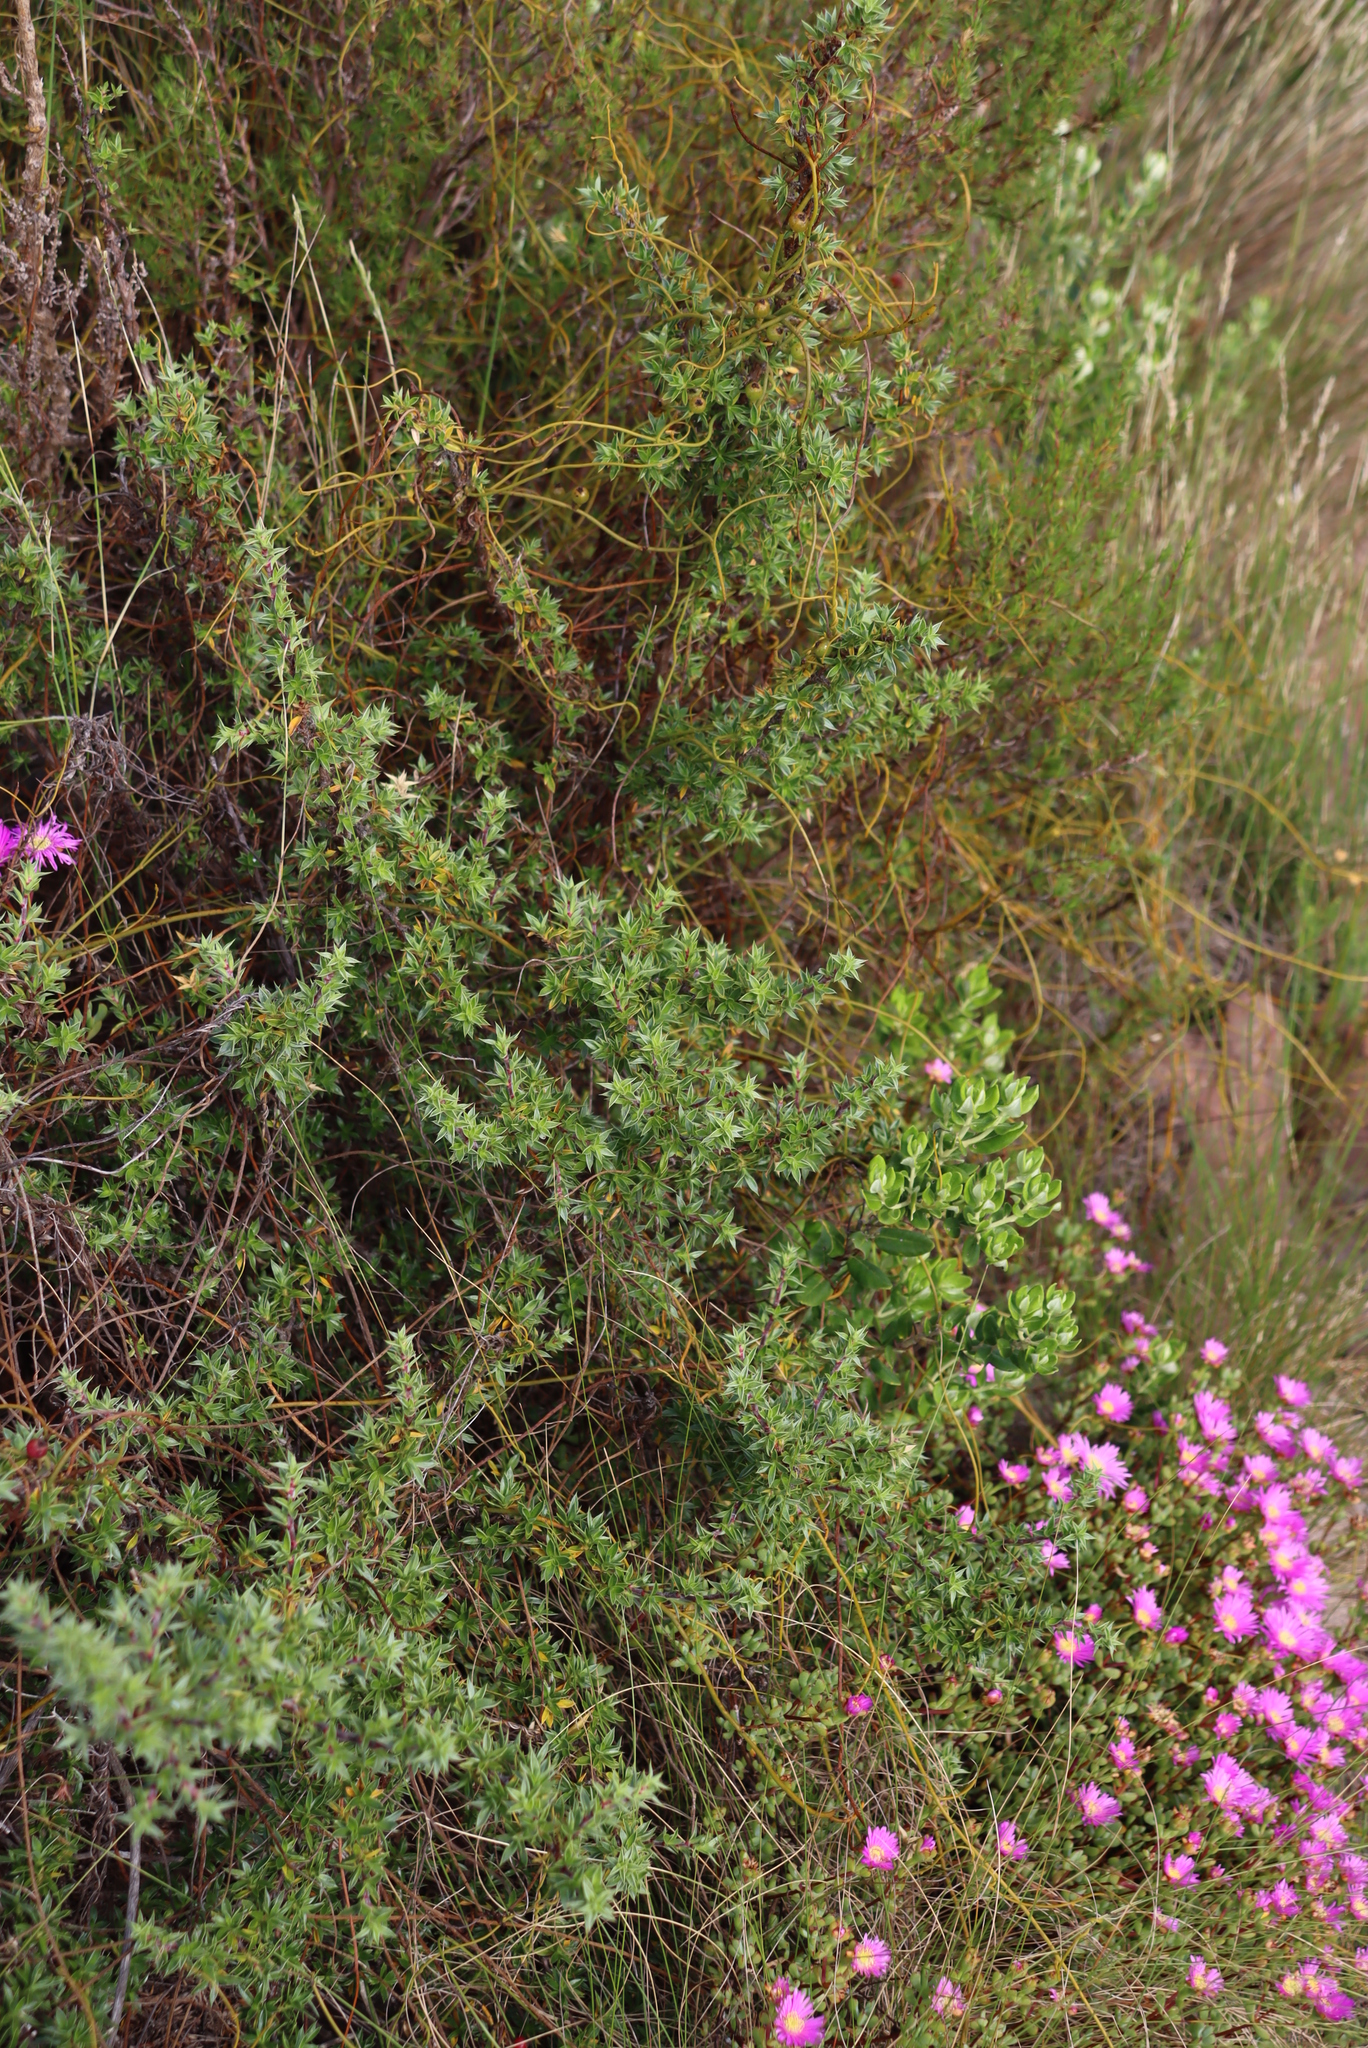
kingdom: Plantae
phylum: Tracheophyta
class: Magnoliopsida
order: Rosales
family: Rosaceae
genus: Cliffortia
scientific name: Cliffortia ruscifolia
